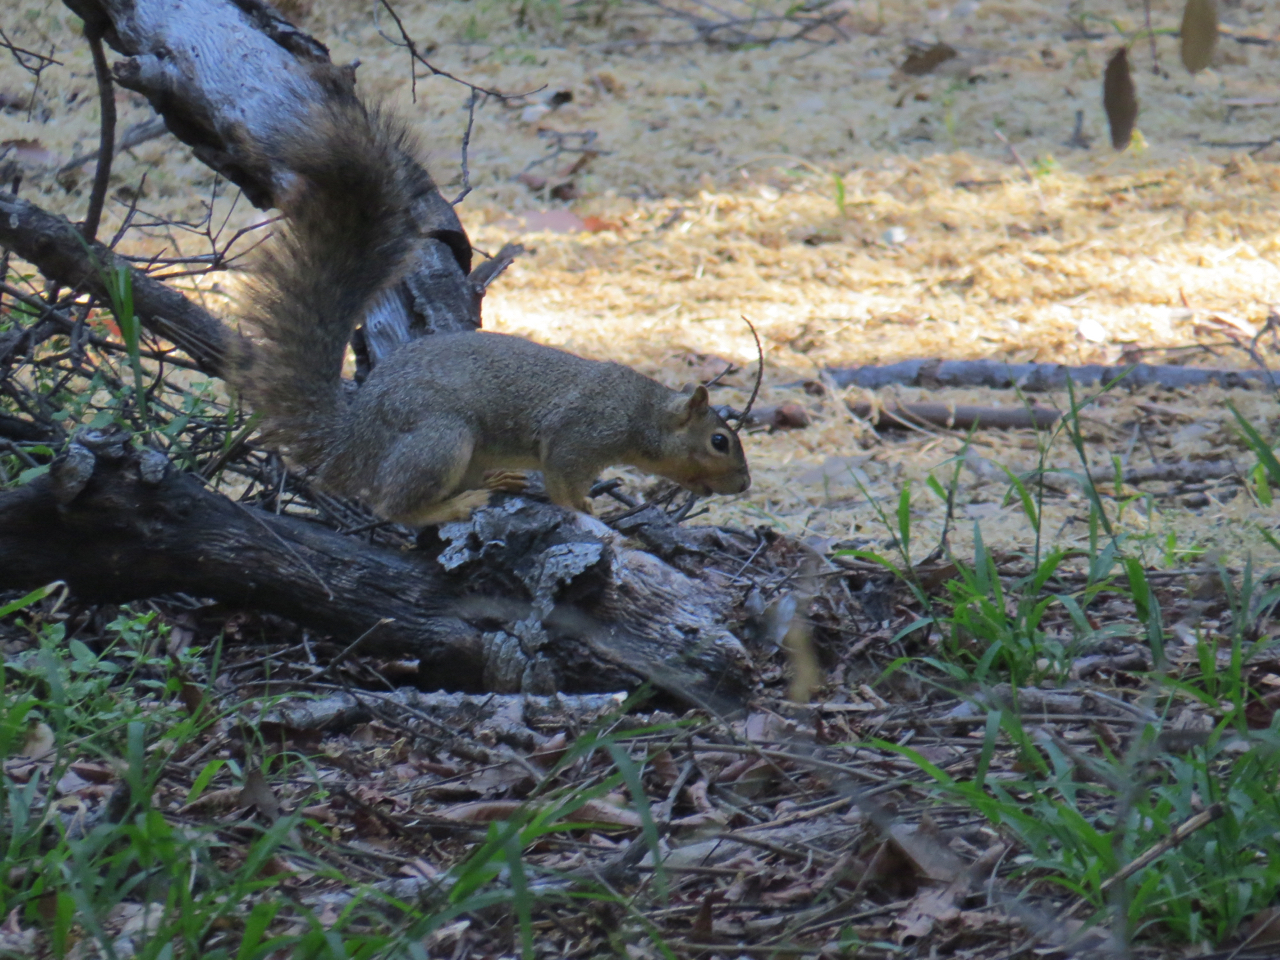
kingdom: Animalia
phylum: Chordata
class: Mammalia
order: Rodentia
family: Sciuridae
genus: Sciurus
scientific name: Sciurus niger
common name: Fox squirrel
